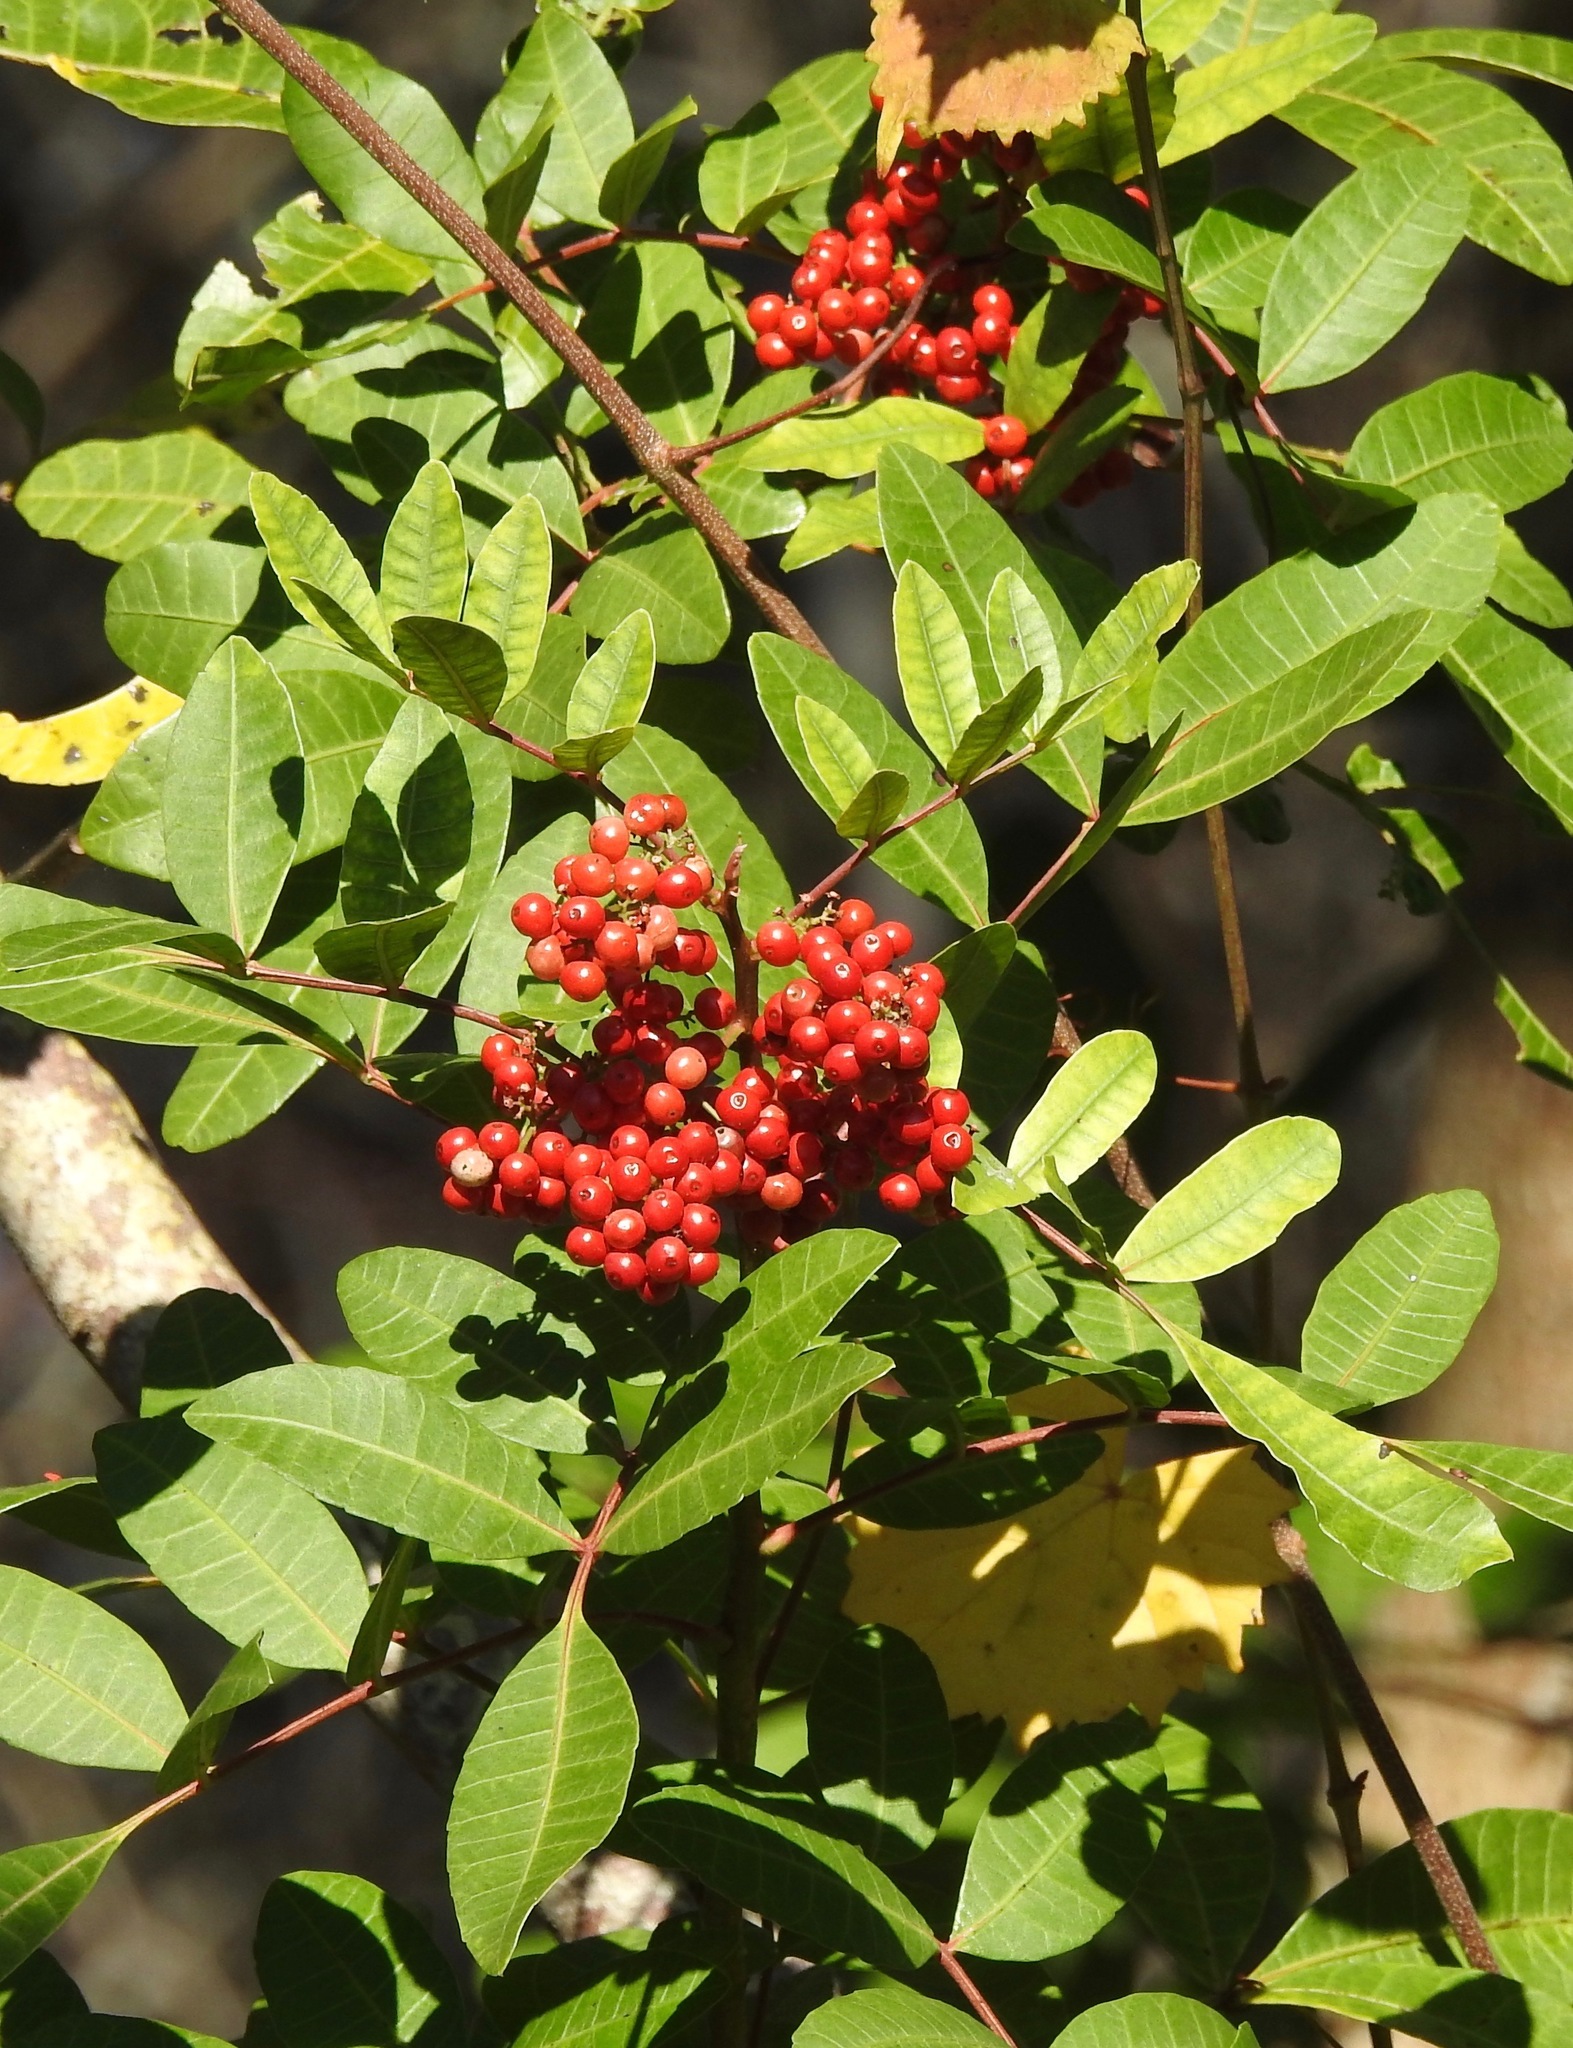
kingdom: Plantae
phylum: Tracheophyta
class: Magnoliopsida
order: Sapindales
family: Anacardiaceae
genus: Schinus
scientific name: Schinus terebinthifolia
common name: Brazilian peppertree
